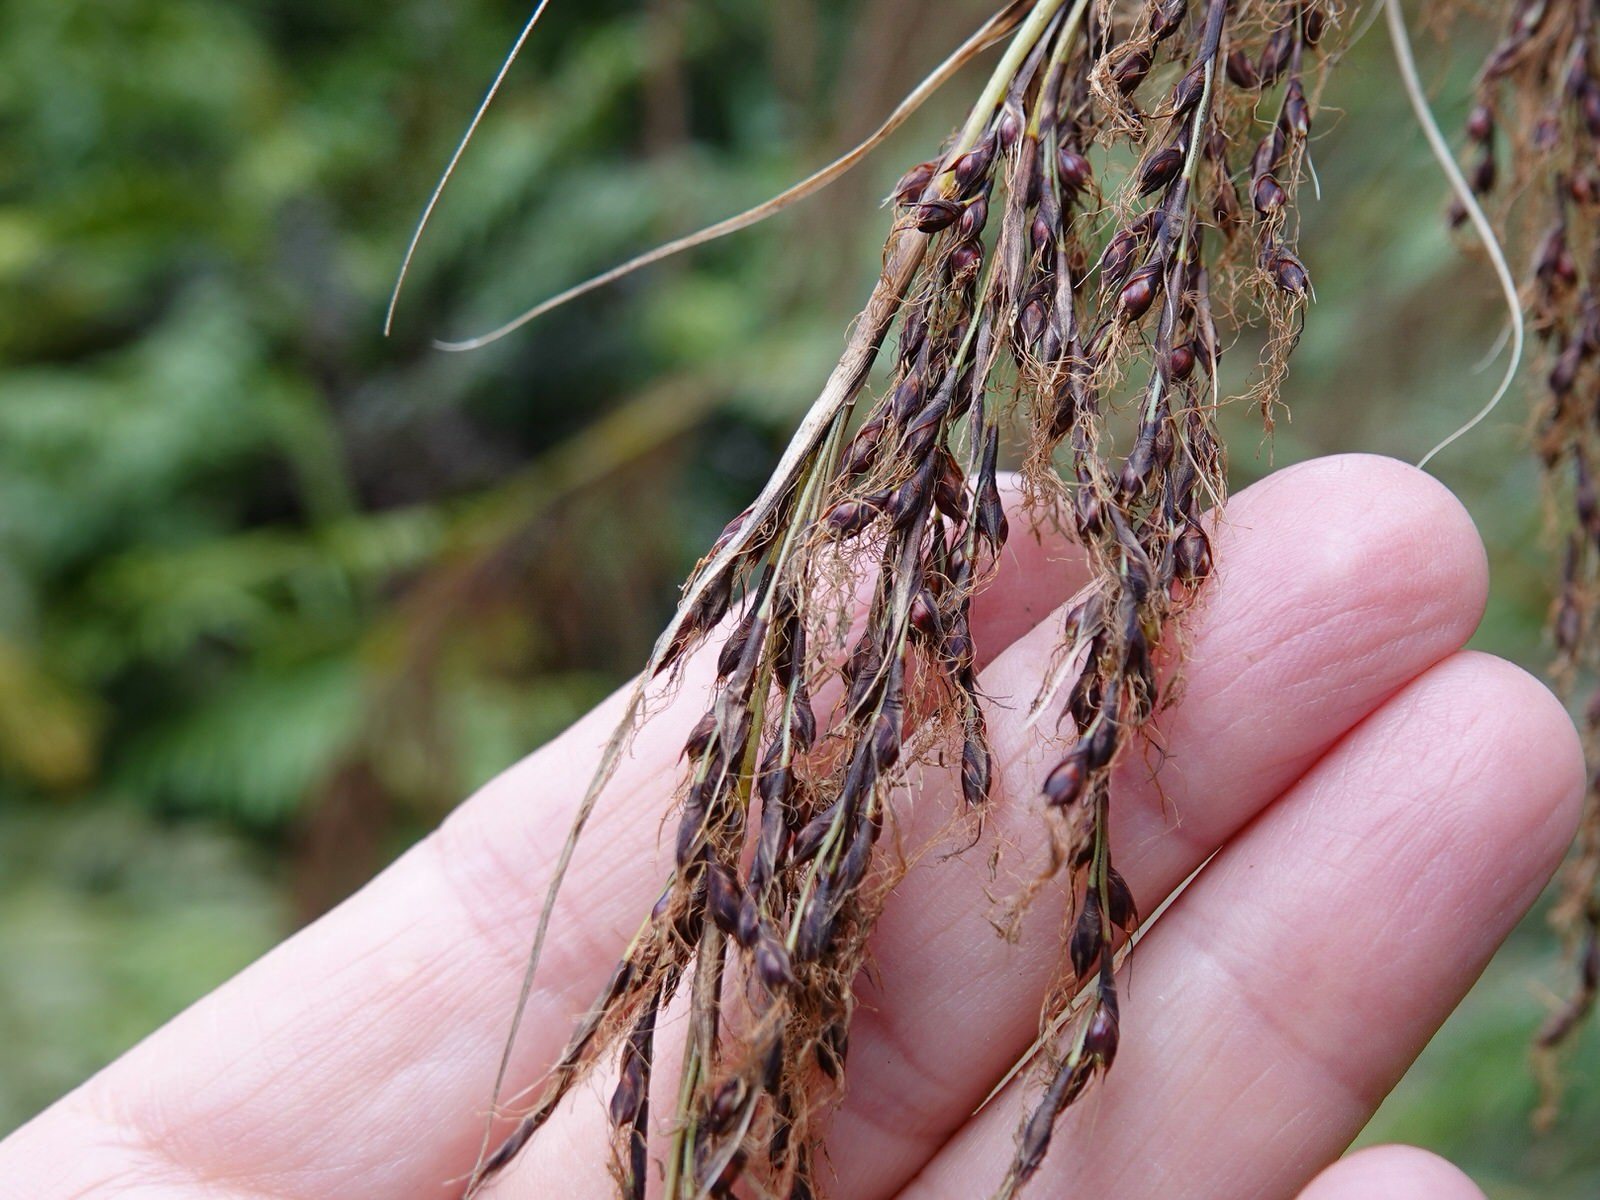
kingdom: Plantae
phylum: Tracheophyta
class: Liliopsida
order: Poales
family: Cyperaceae
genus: Gahnia
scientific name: Gahnia setifolia
